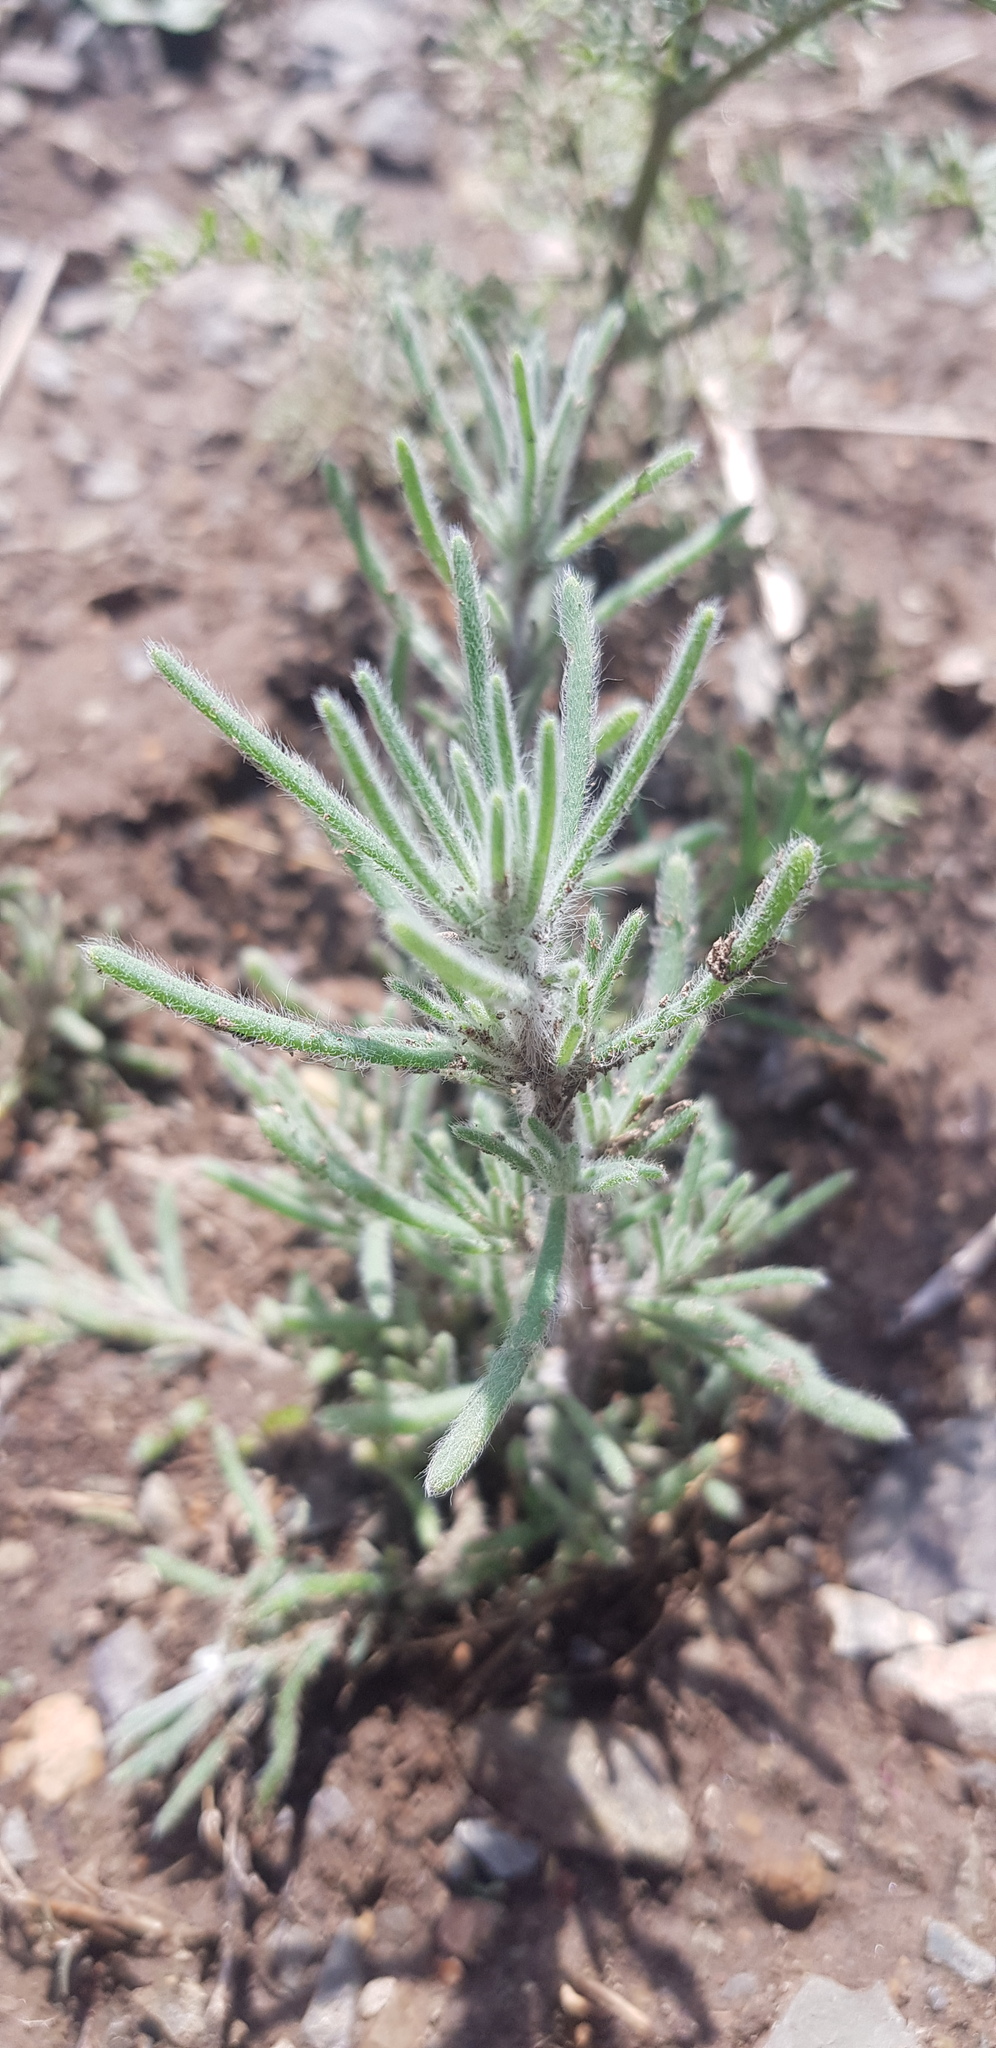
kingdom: Plantae
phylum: Tracheophyta
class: Magnoliopsida
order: Caryophyllales
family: Amaranthaceae
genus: Grubovia
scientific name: Grubovia dasyphylla
